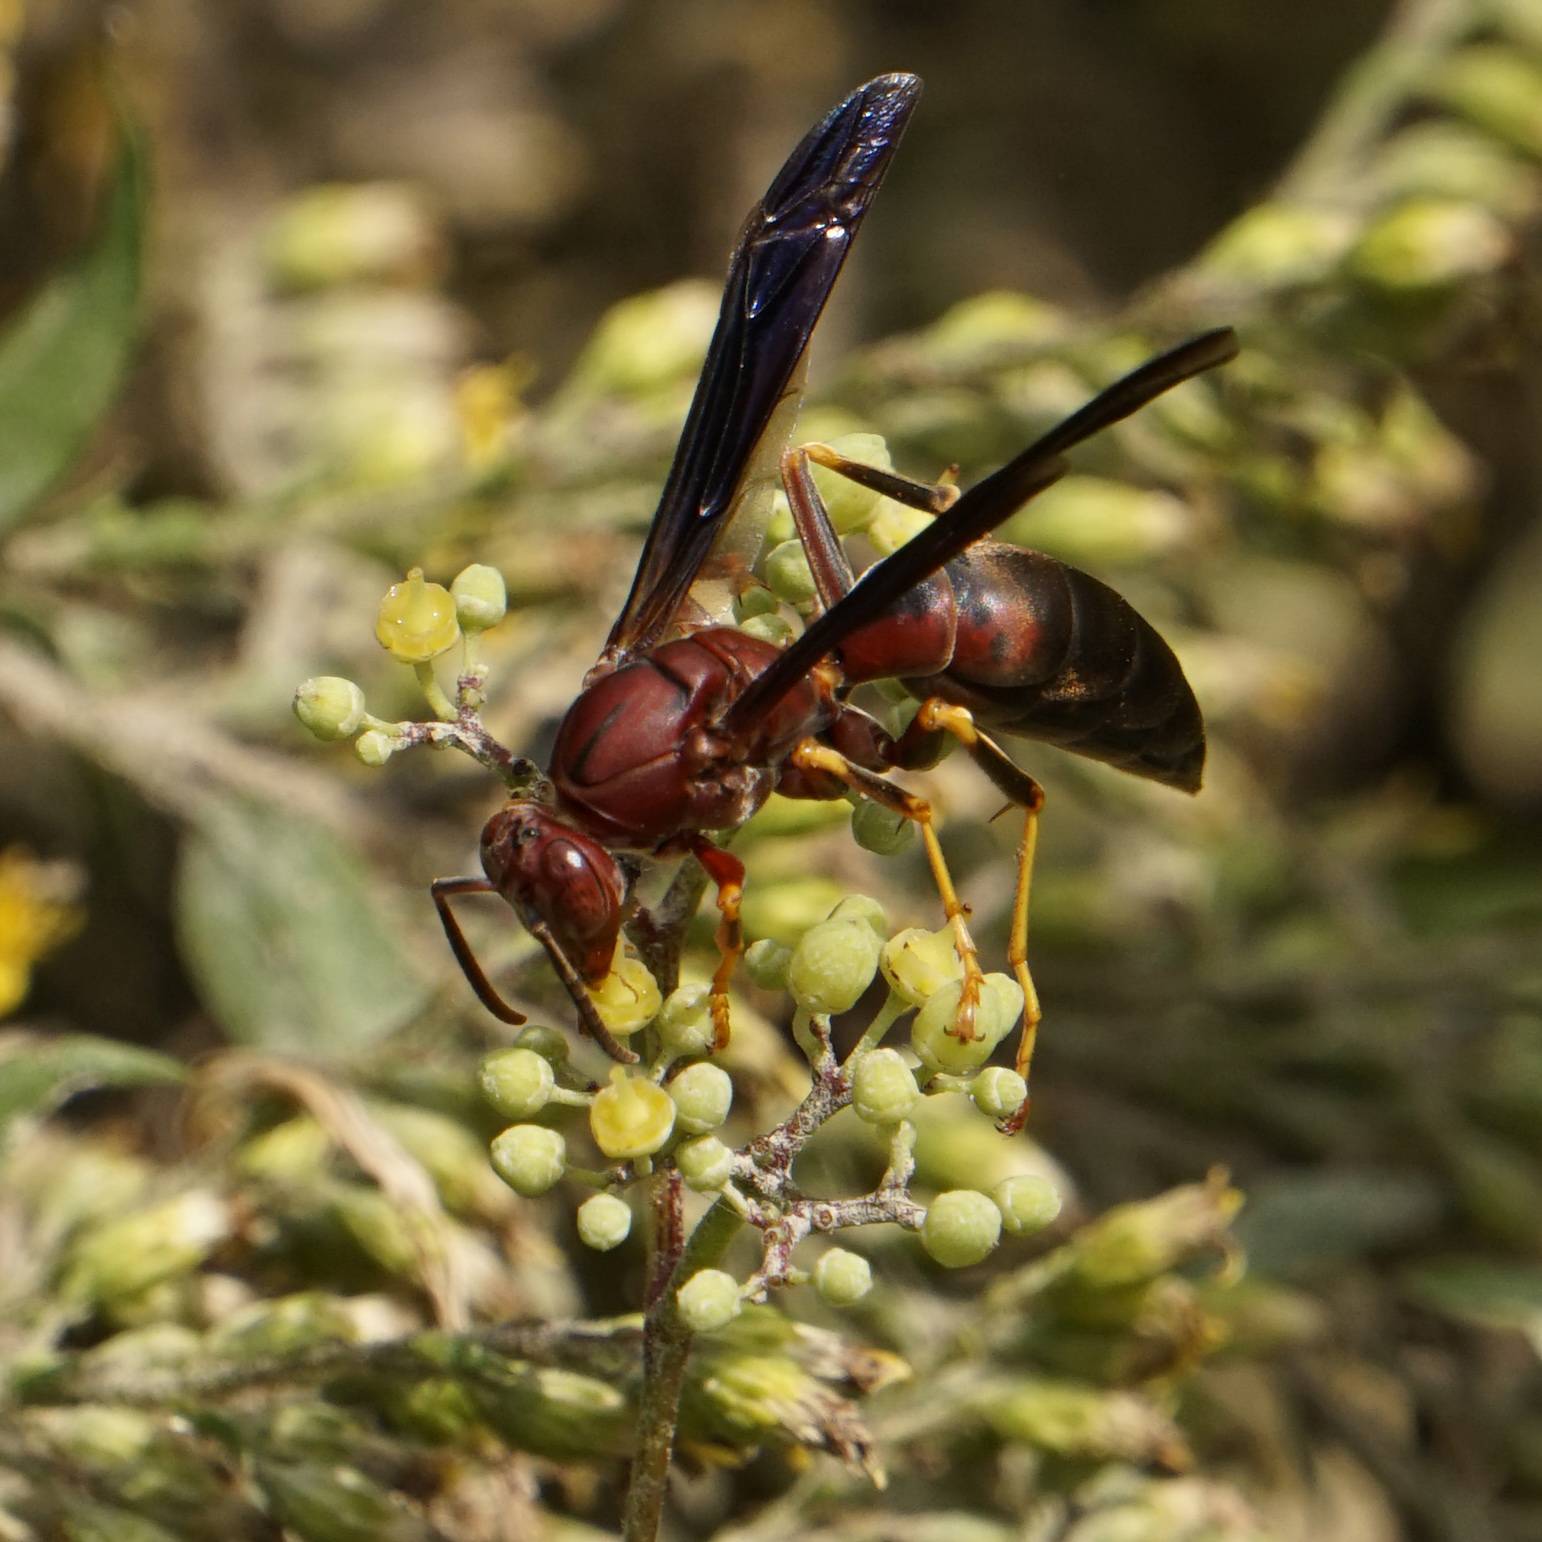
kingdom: Animalia
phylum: Arthropoda
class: Insecta
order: Hymenoptera
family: Eumenidae
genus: Polistes
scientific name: Polistes metricus
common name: Metric paper wasp
